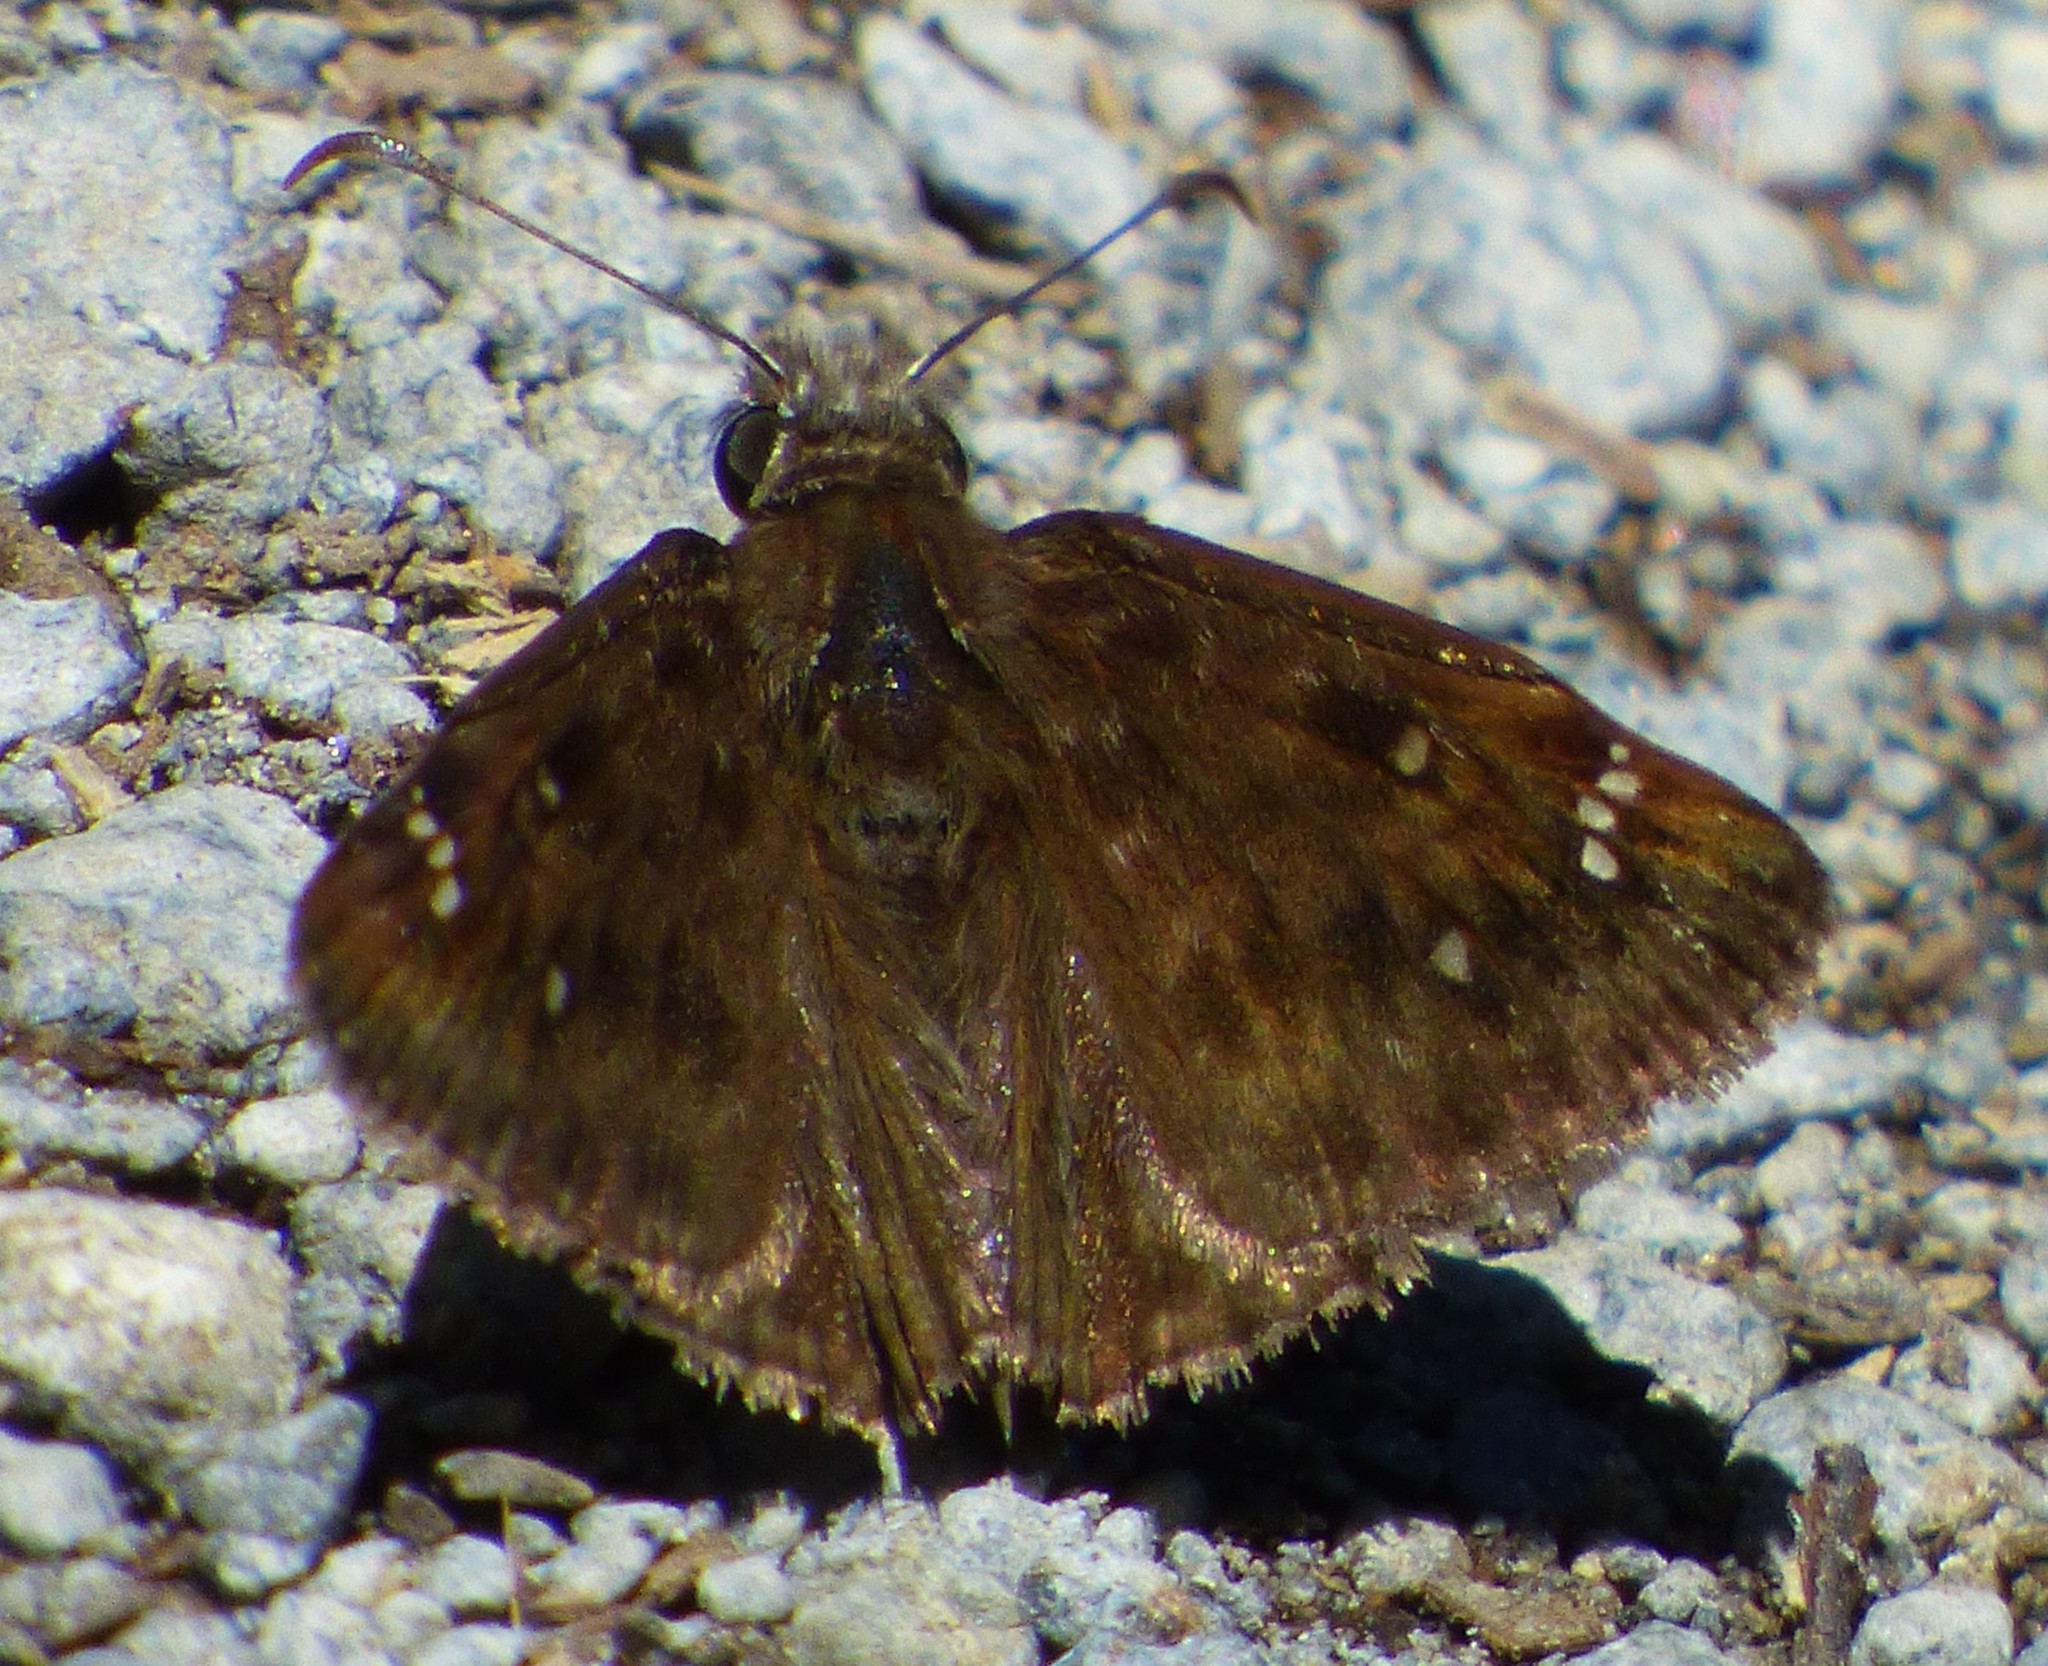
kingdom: Animalia
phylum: Arthropoda
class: Insecta
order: Lepidoptera
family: Hesperiidae
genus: Erynnis
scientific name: Erynnis horatius
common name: Horace's duskywing
